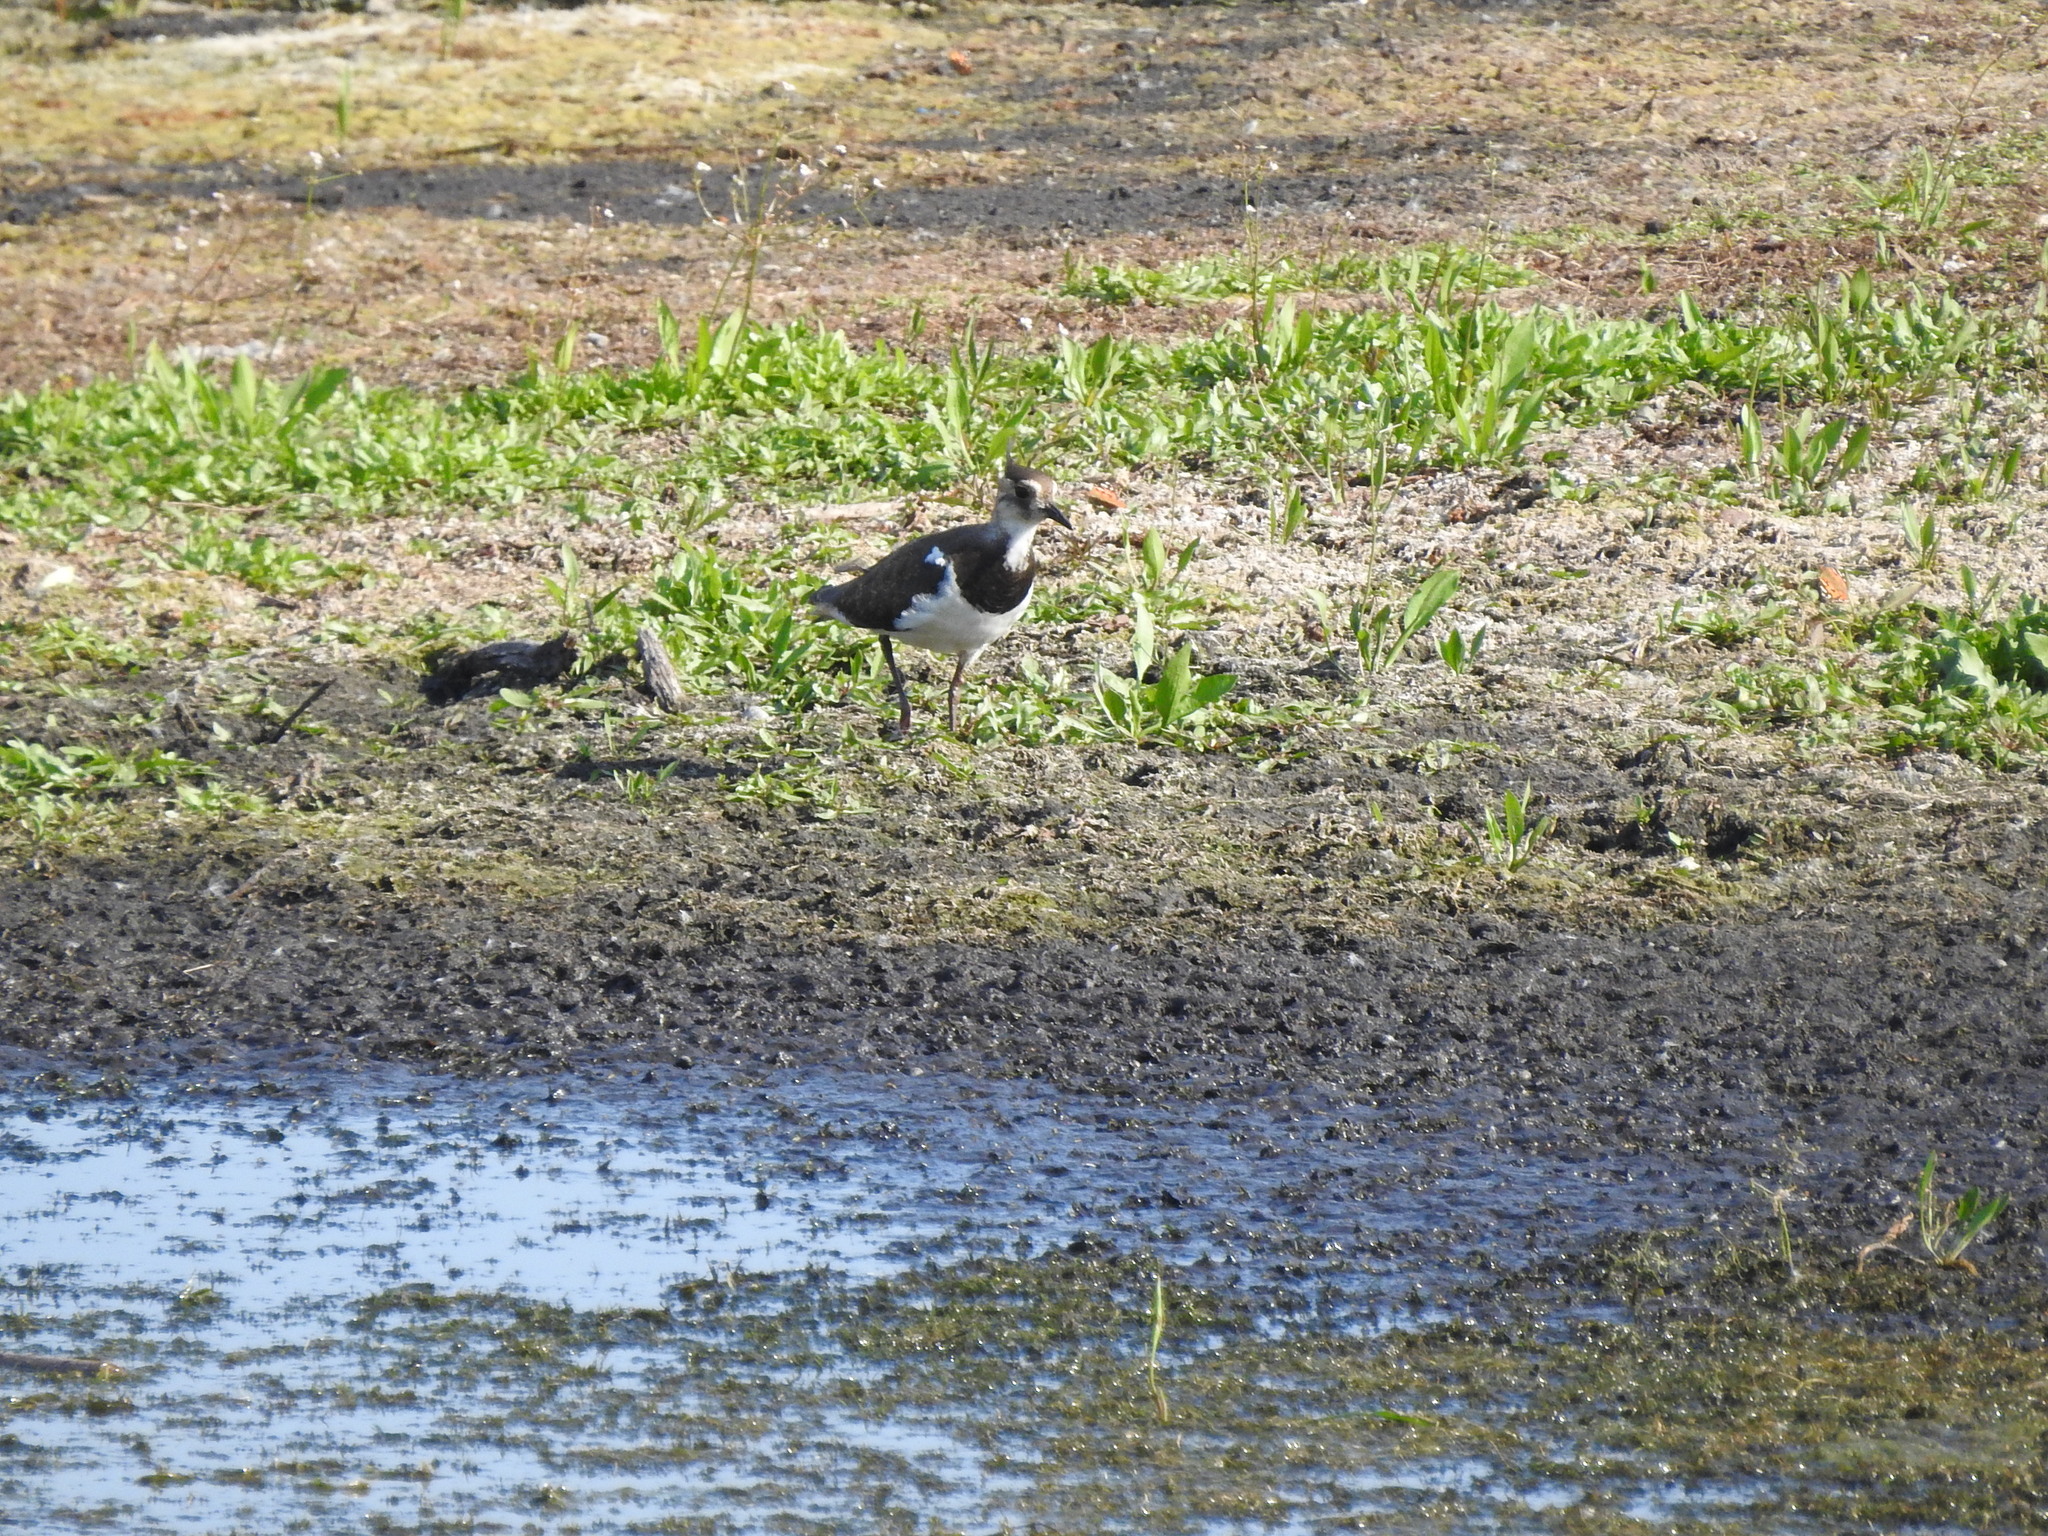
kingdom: Animalia
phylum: Chordata
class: Aves
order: Charadriiformes
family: Charadriidae
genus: Vanellus
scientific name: Vanellus vanellus
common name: Northern lapwing
